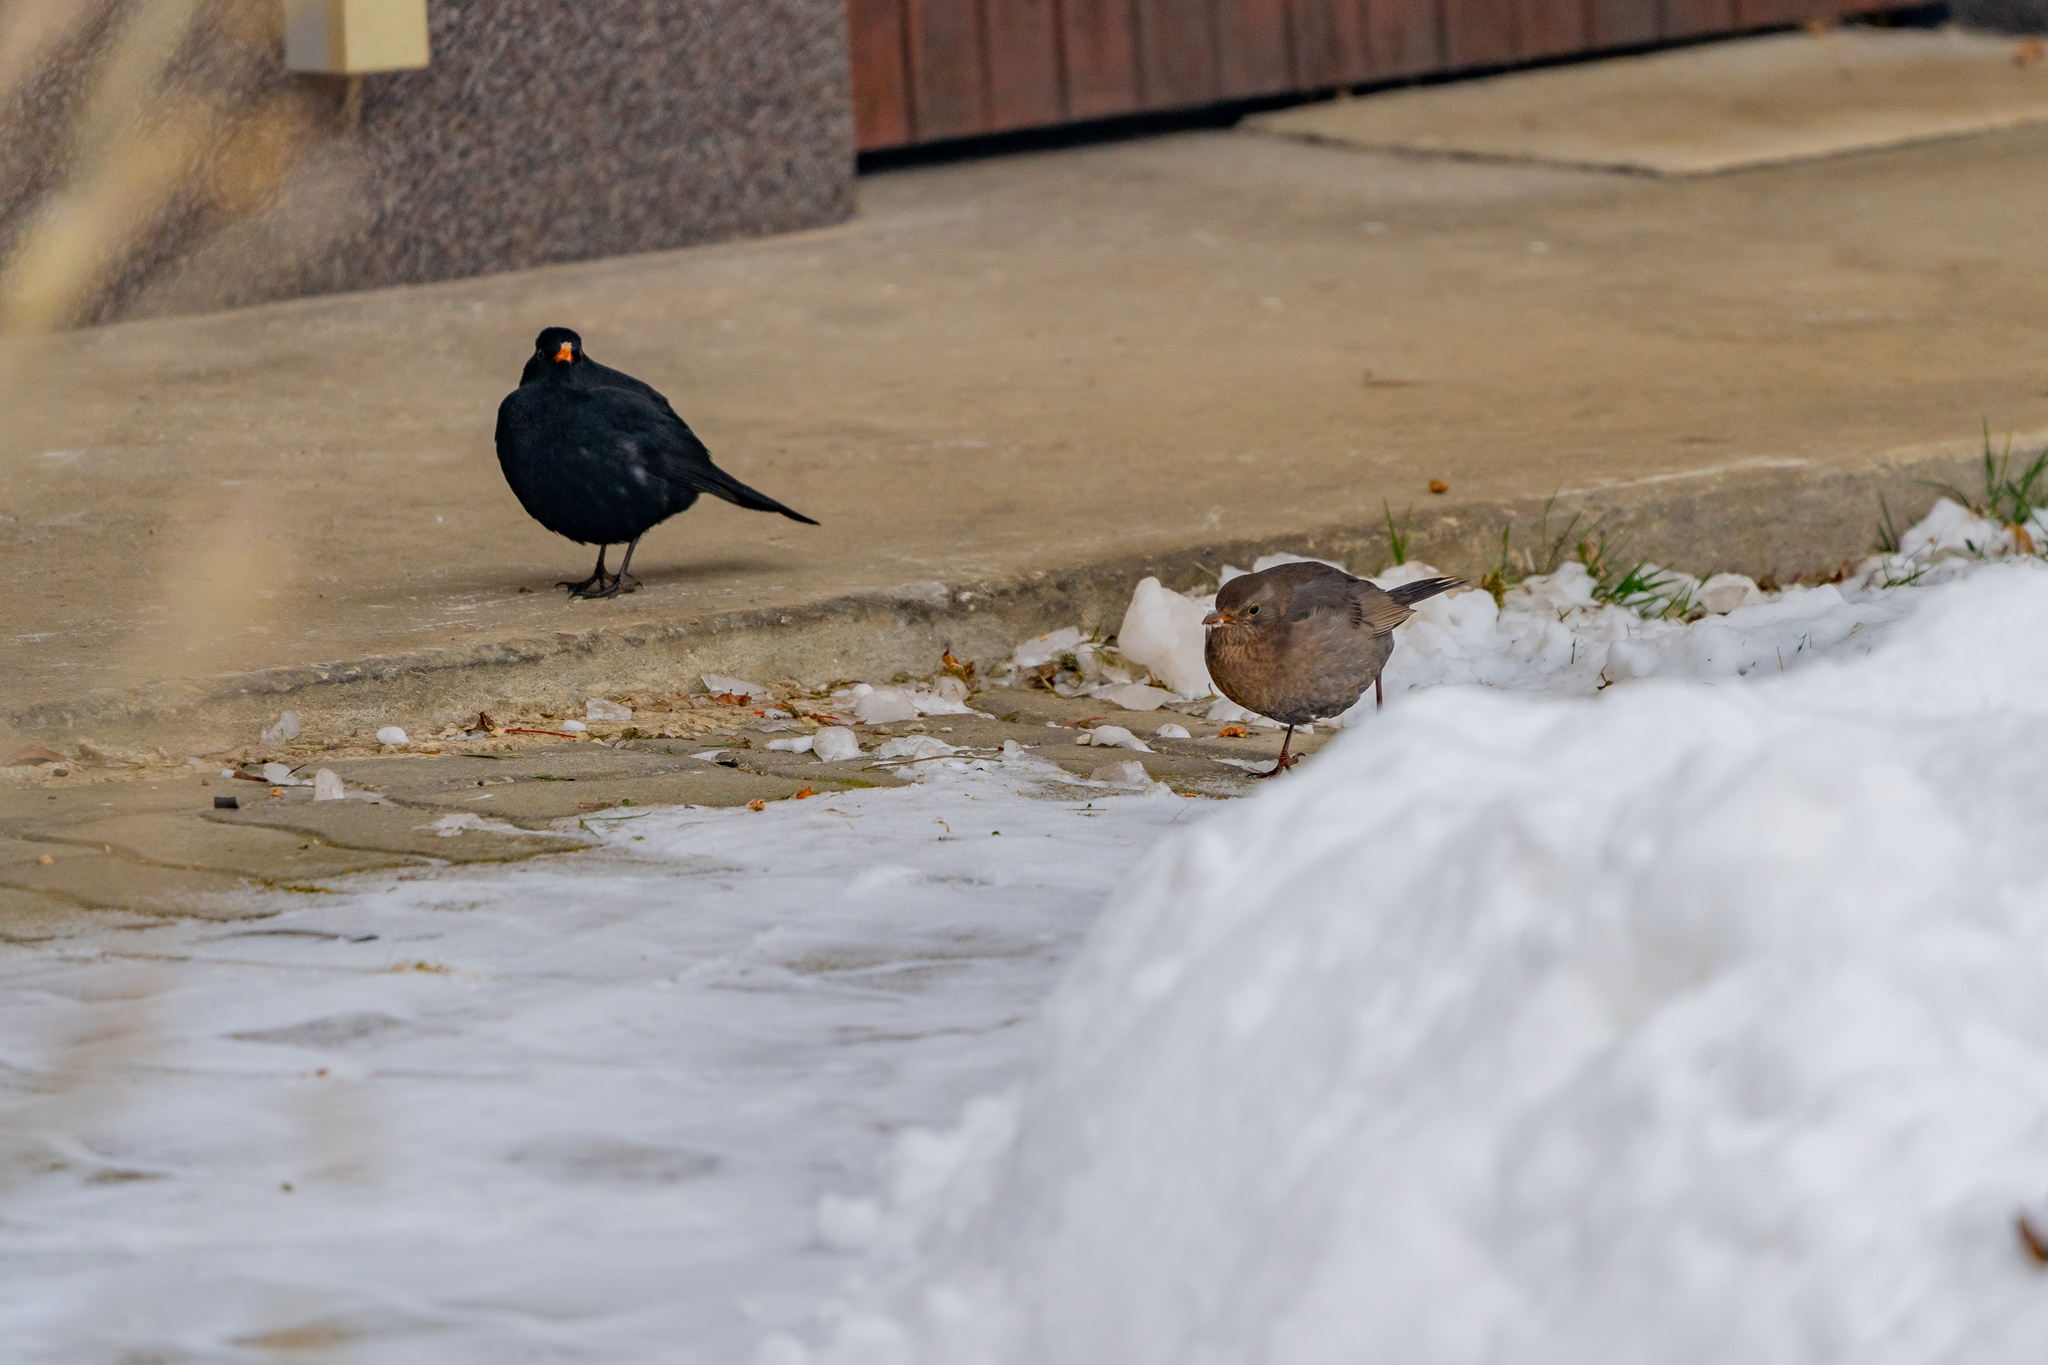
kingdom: Animalia
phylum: Chordata
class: Aves
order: Passeriformes
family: Turdidae
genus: Turdus
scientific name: Turdus merula
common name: Common blackbird
